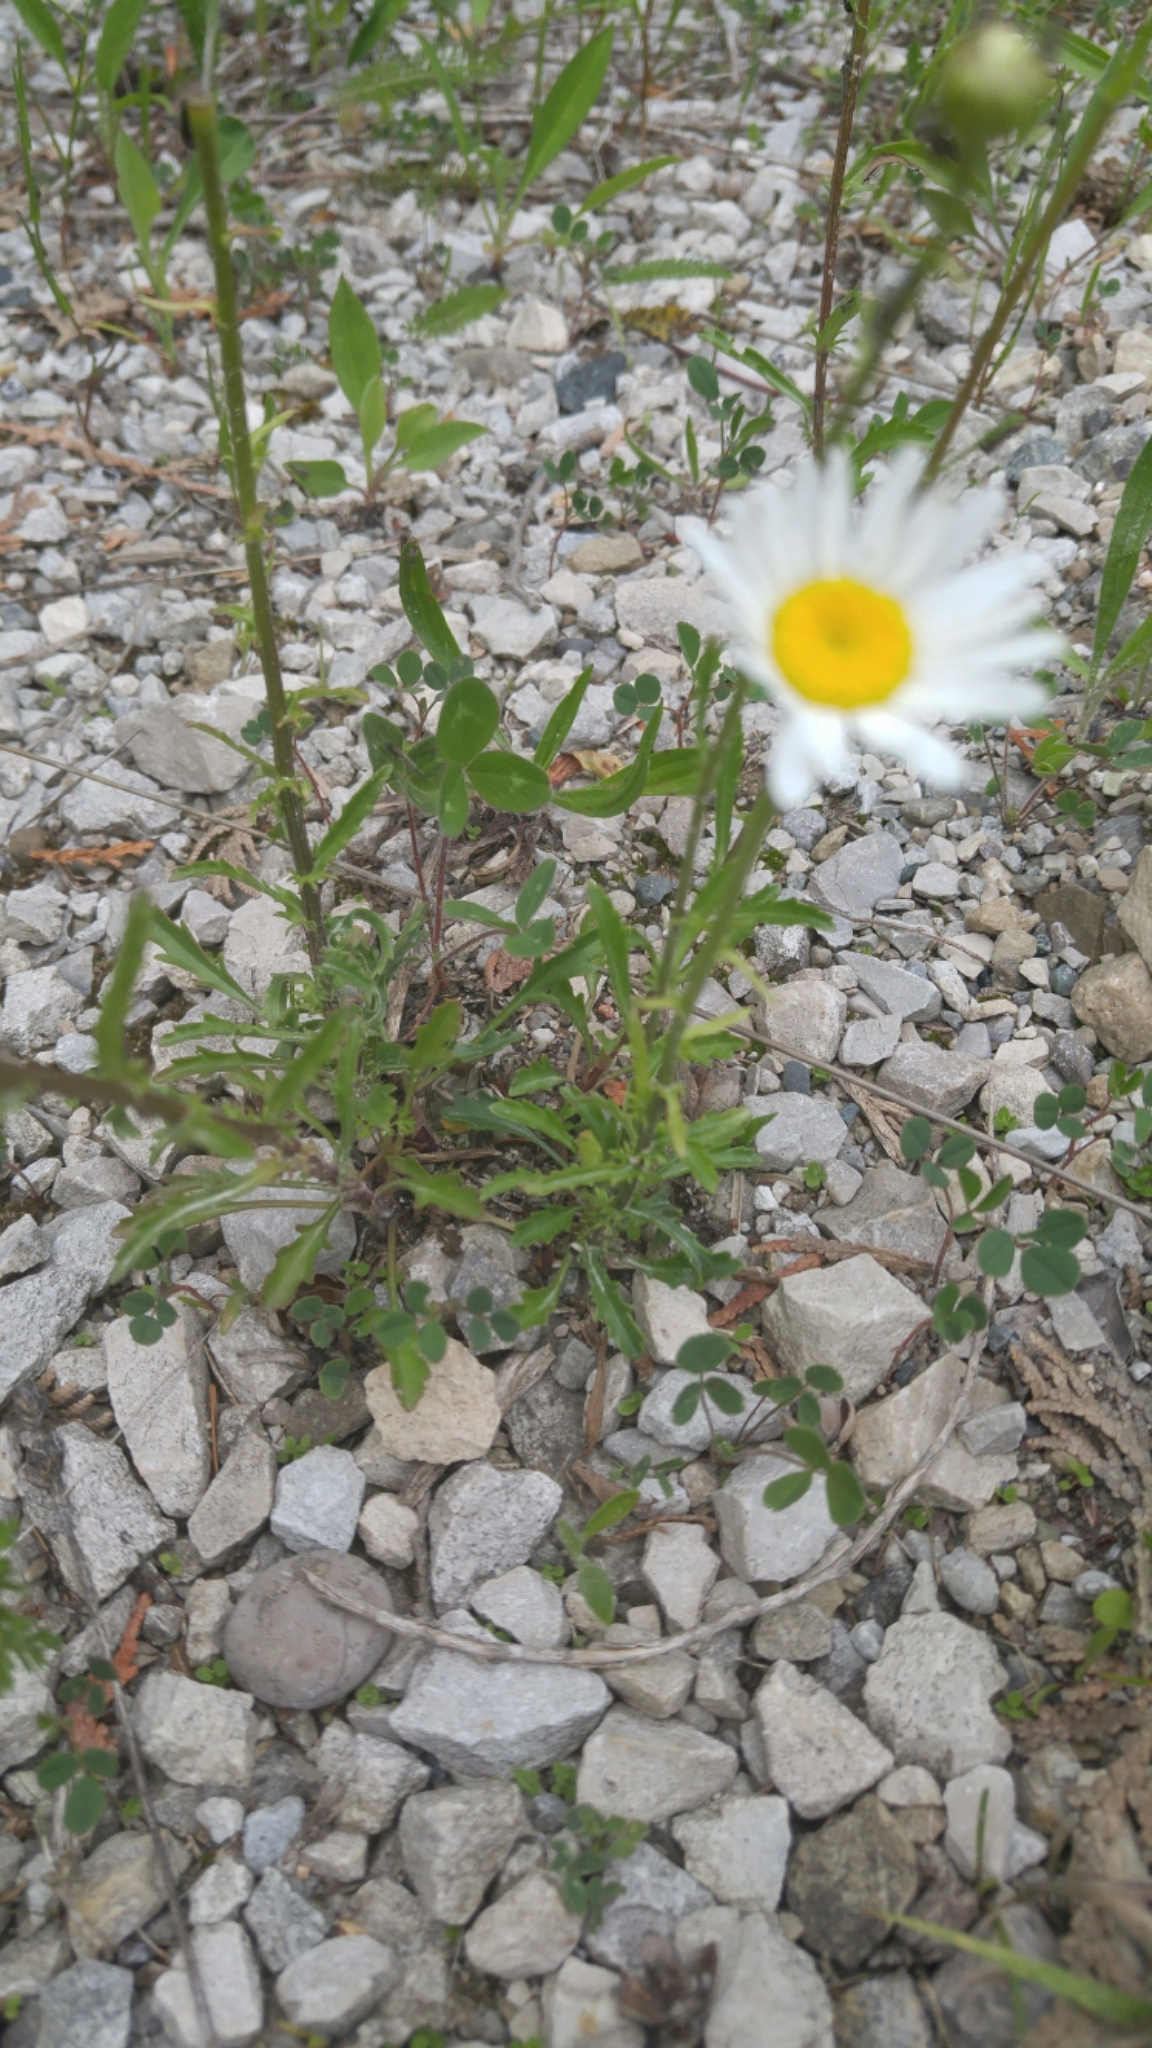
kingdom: Plantae
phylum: Tracheophyta
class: Magnoliopsida
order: Asterales
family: Asteraceae
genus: Leucanthemum
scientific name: Leucanthemum vulgare
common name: Oxeye daisy
